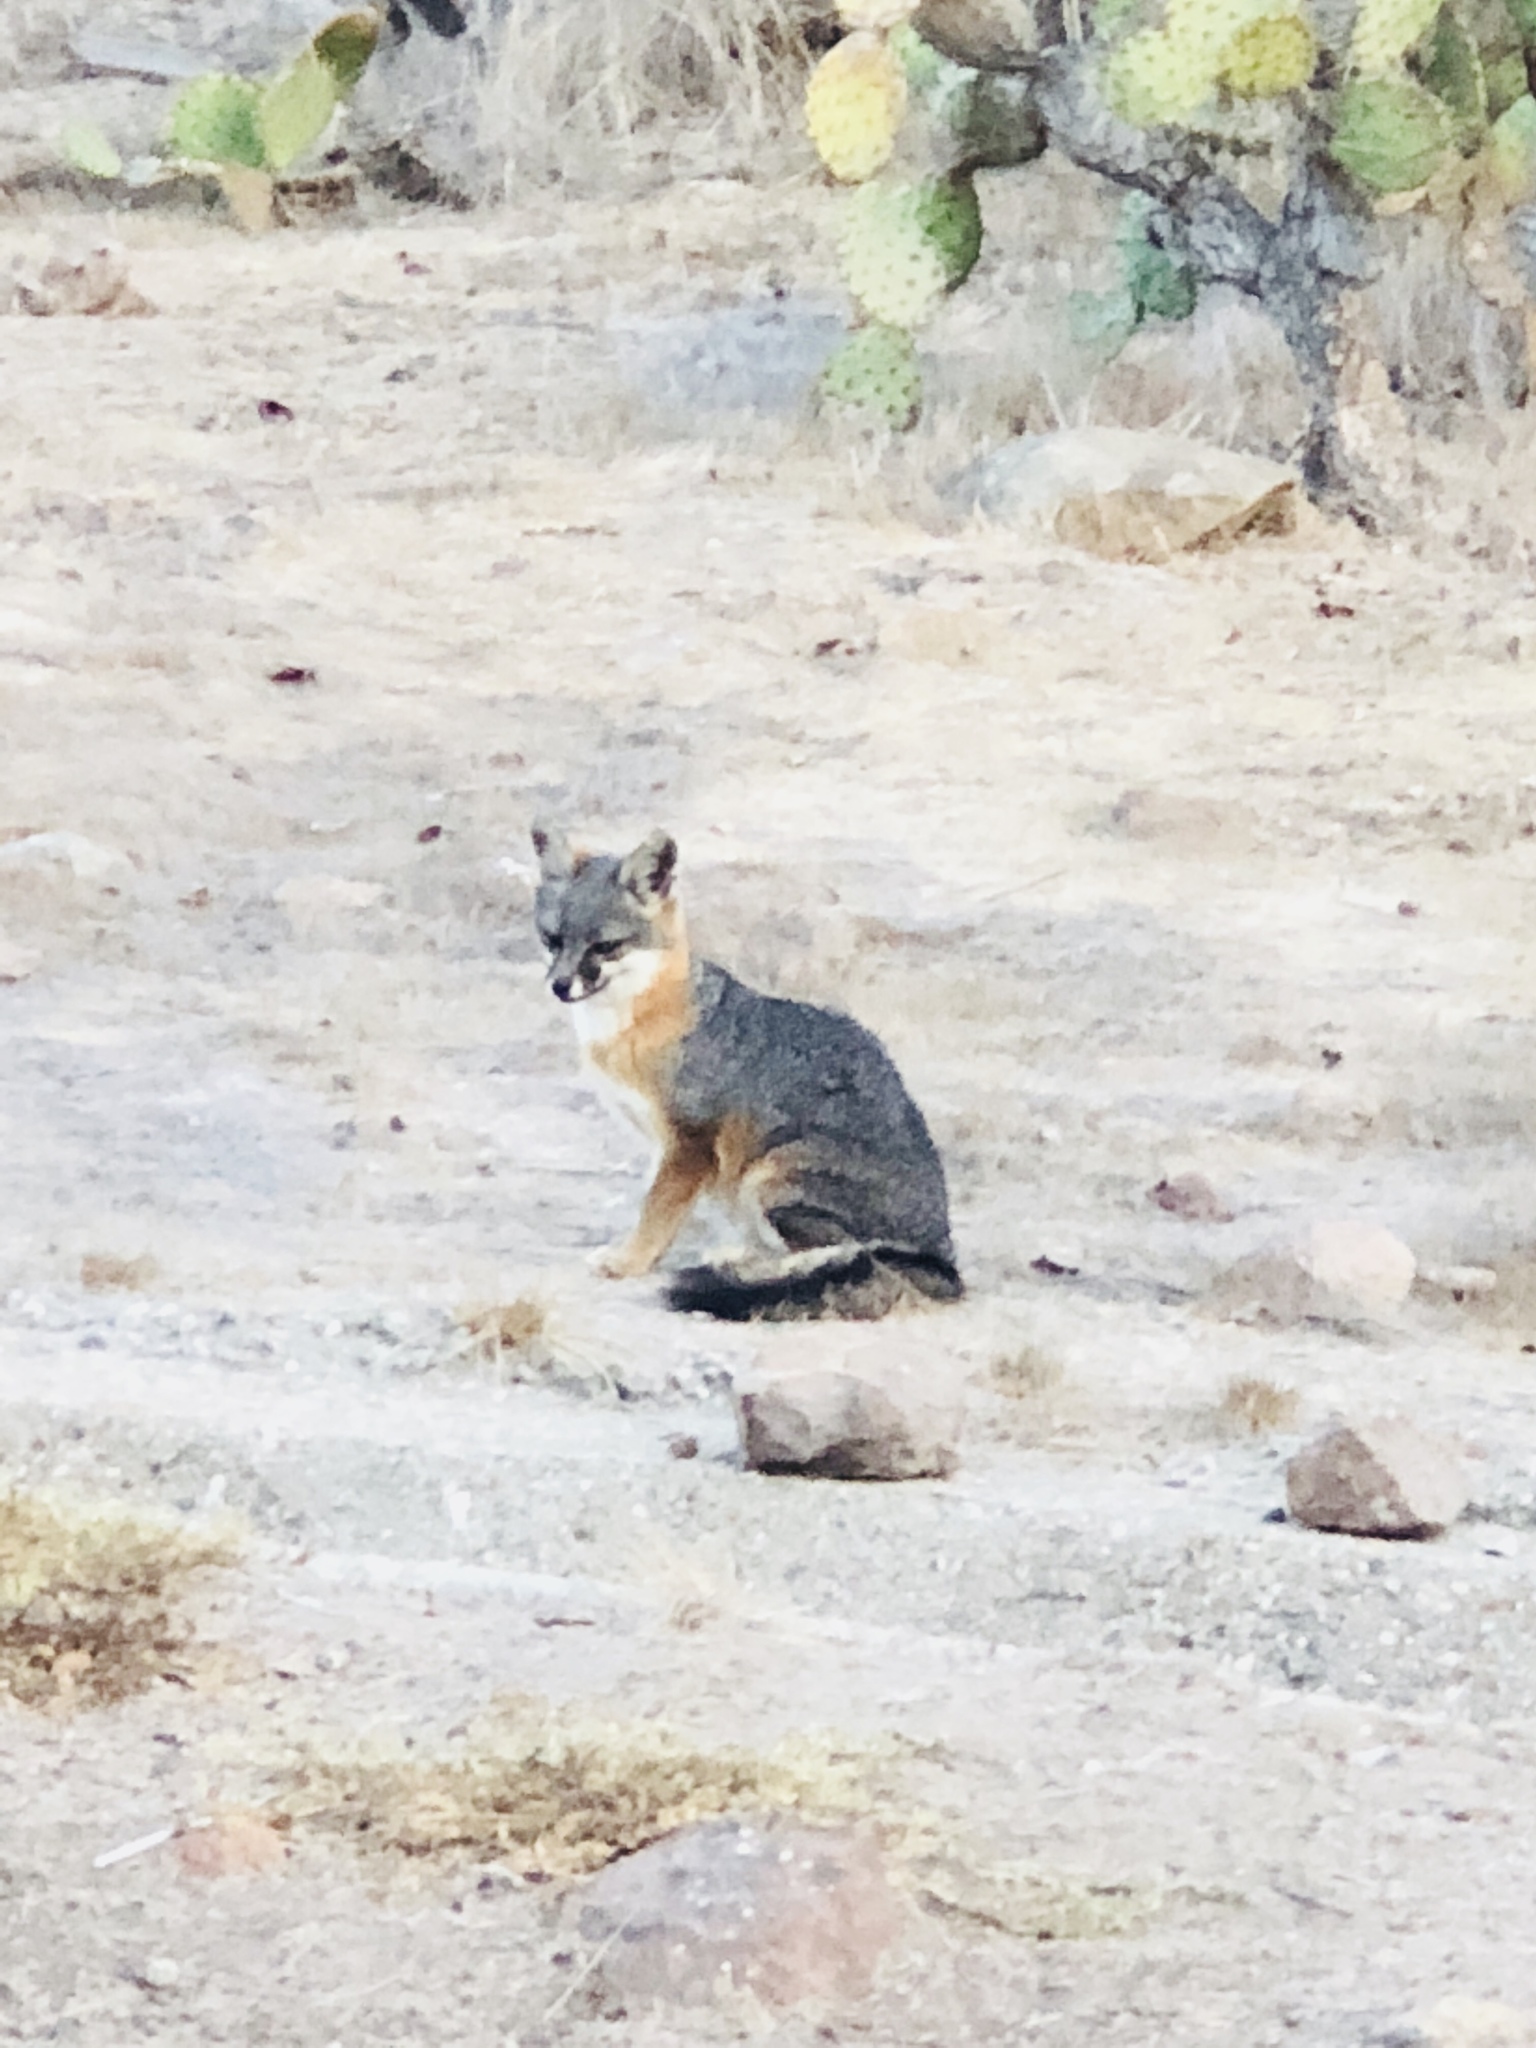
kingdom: Animalia
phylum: Chordata
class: Mammalia
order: Carnivora
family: Canidae
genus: Urocyon
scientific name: Urocyon littoralis
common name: Island gray fox
